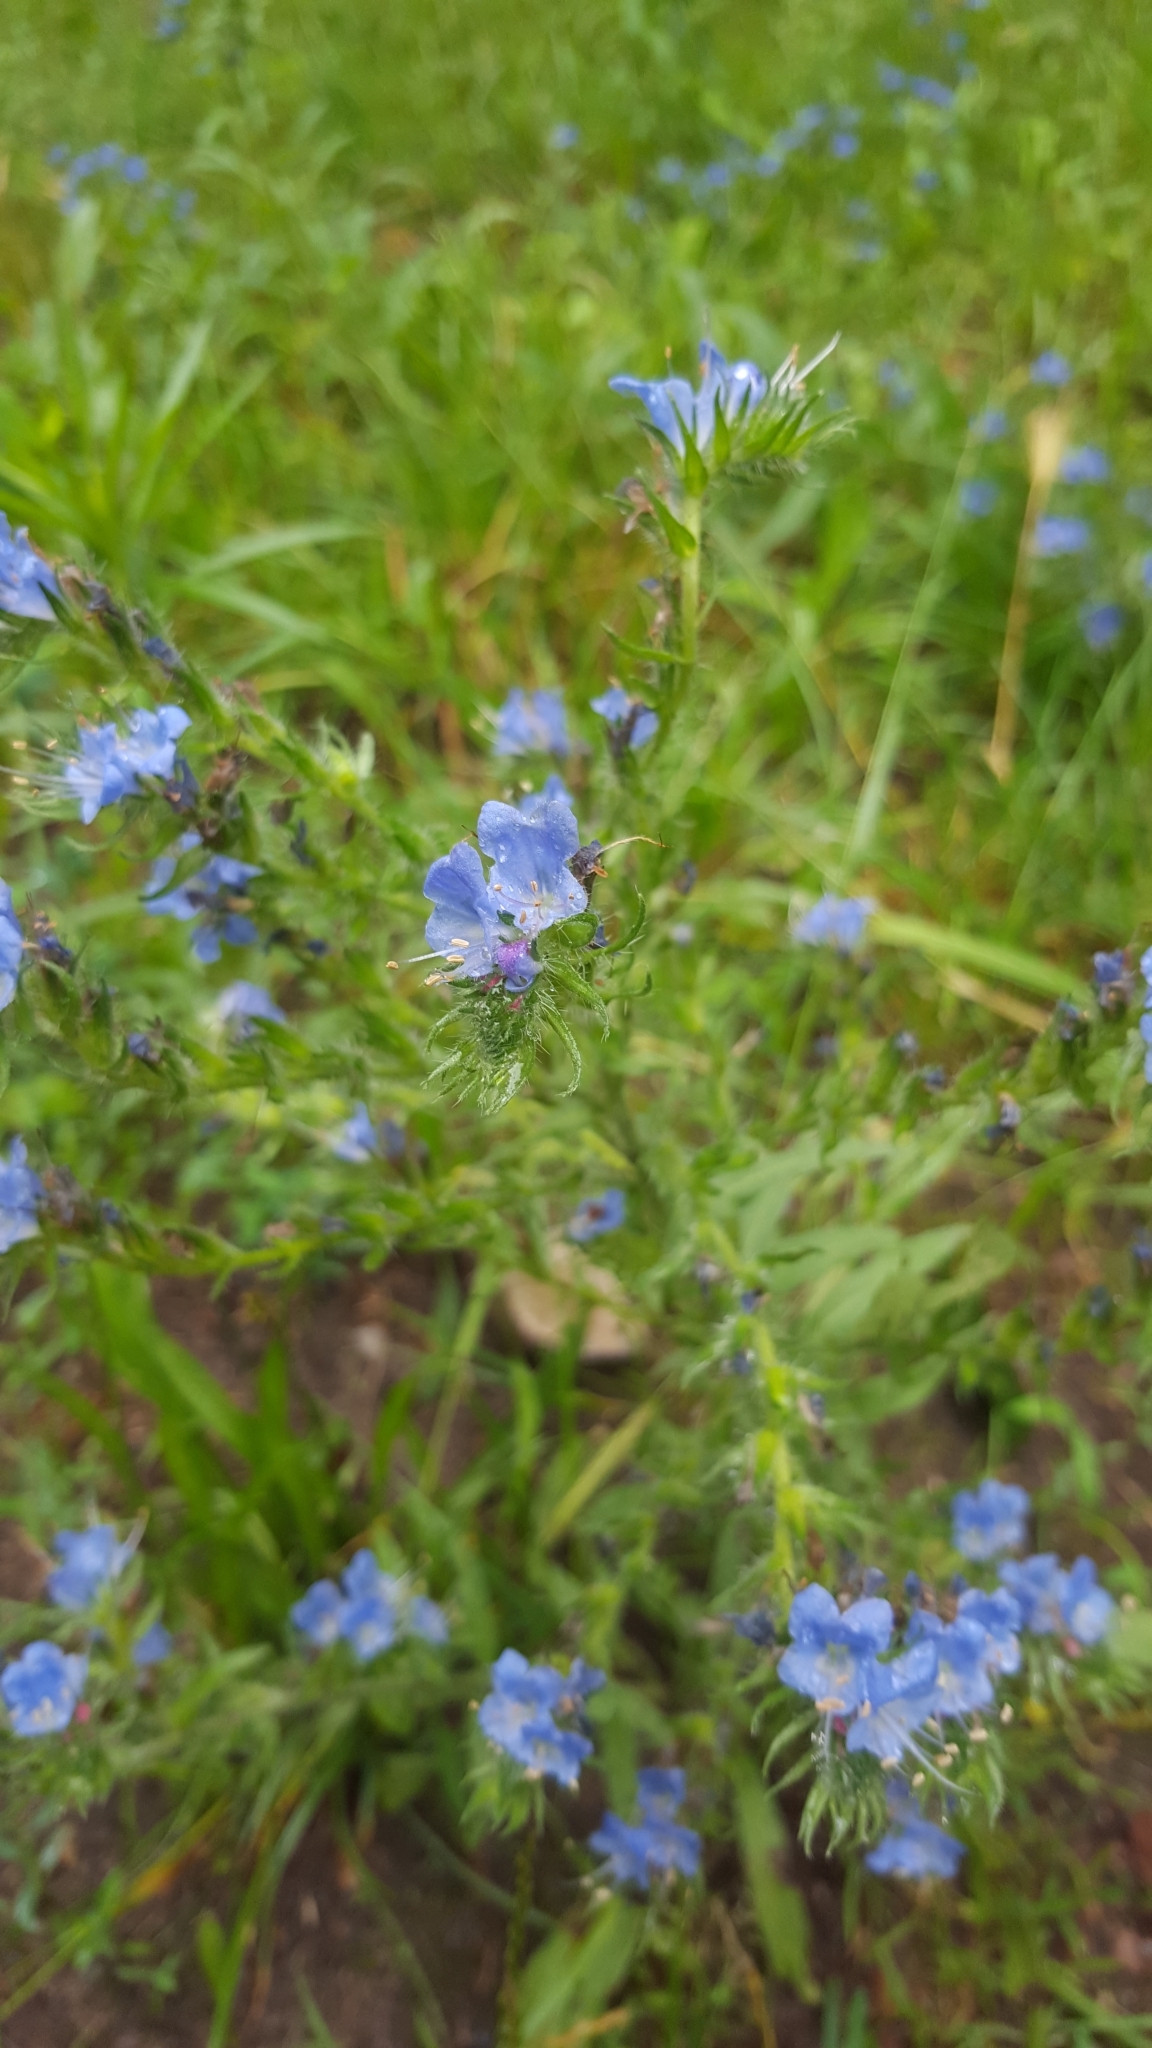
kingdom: Plantae
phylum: Tracheophyta
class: Magnoliopsida
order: Boraginales
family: Boraginaceae
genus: Echium
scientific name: Echium vulgare
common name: Common viper's bugloss
